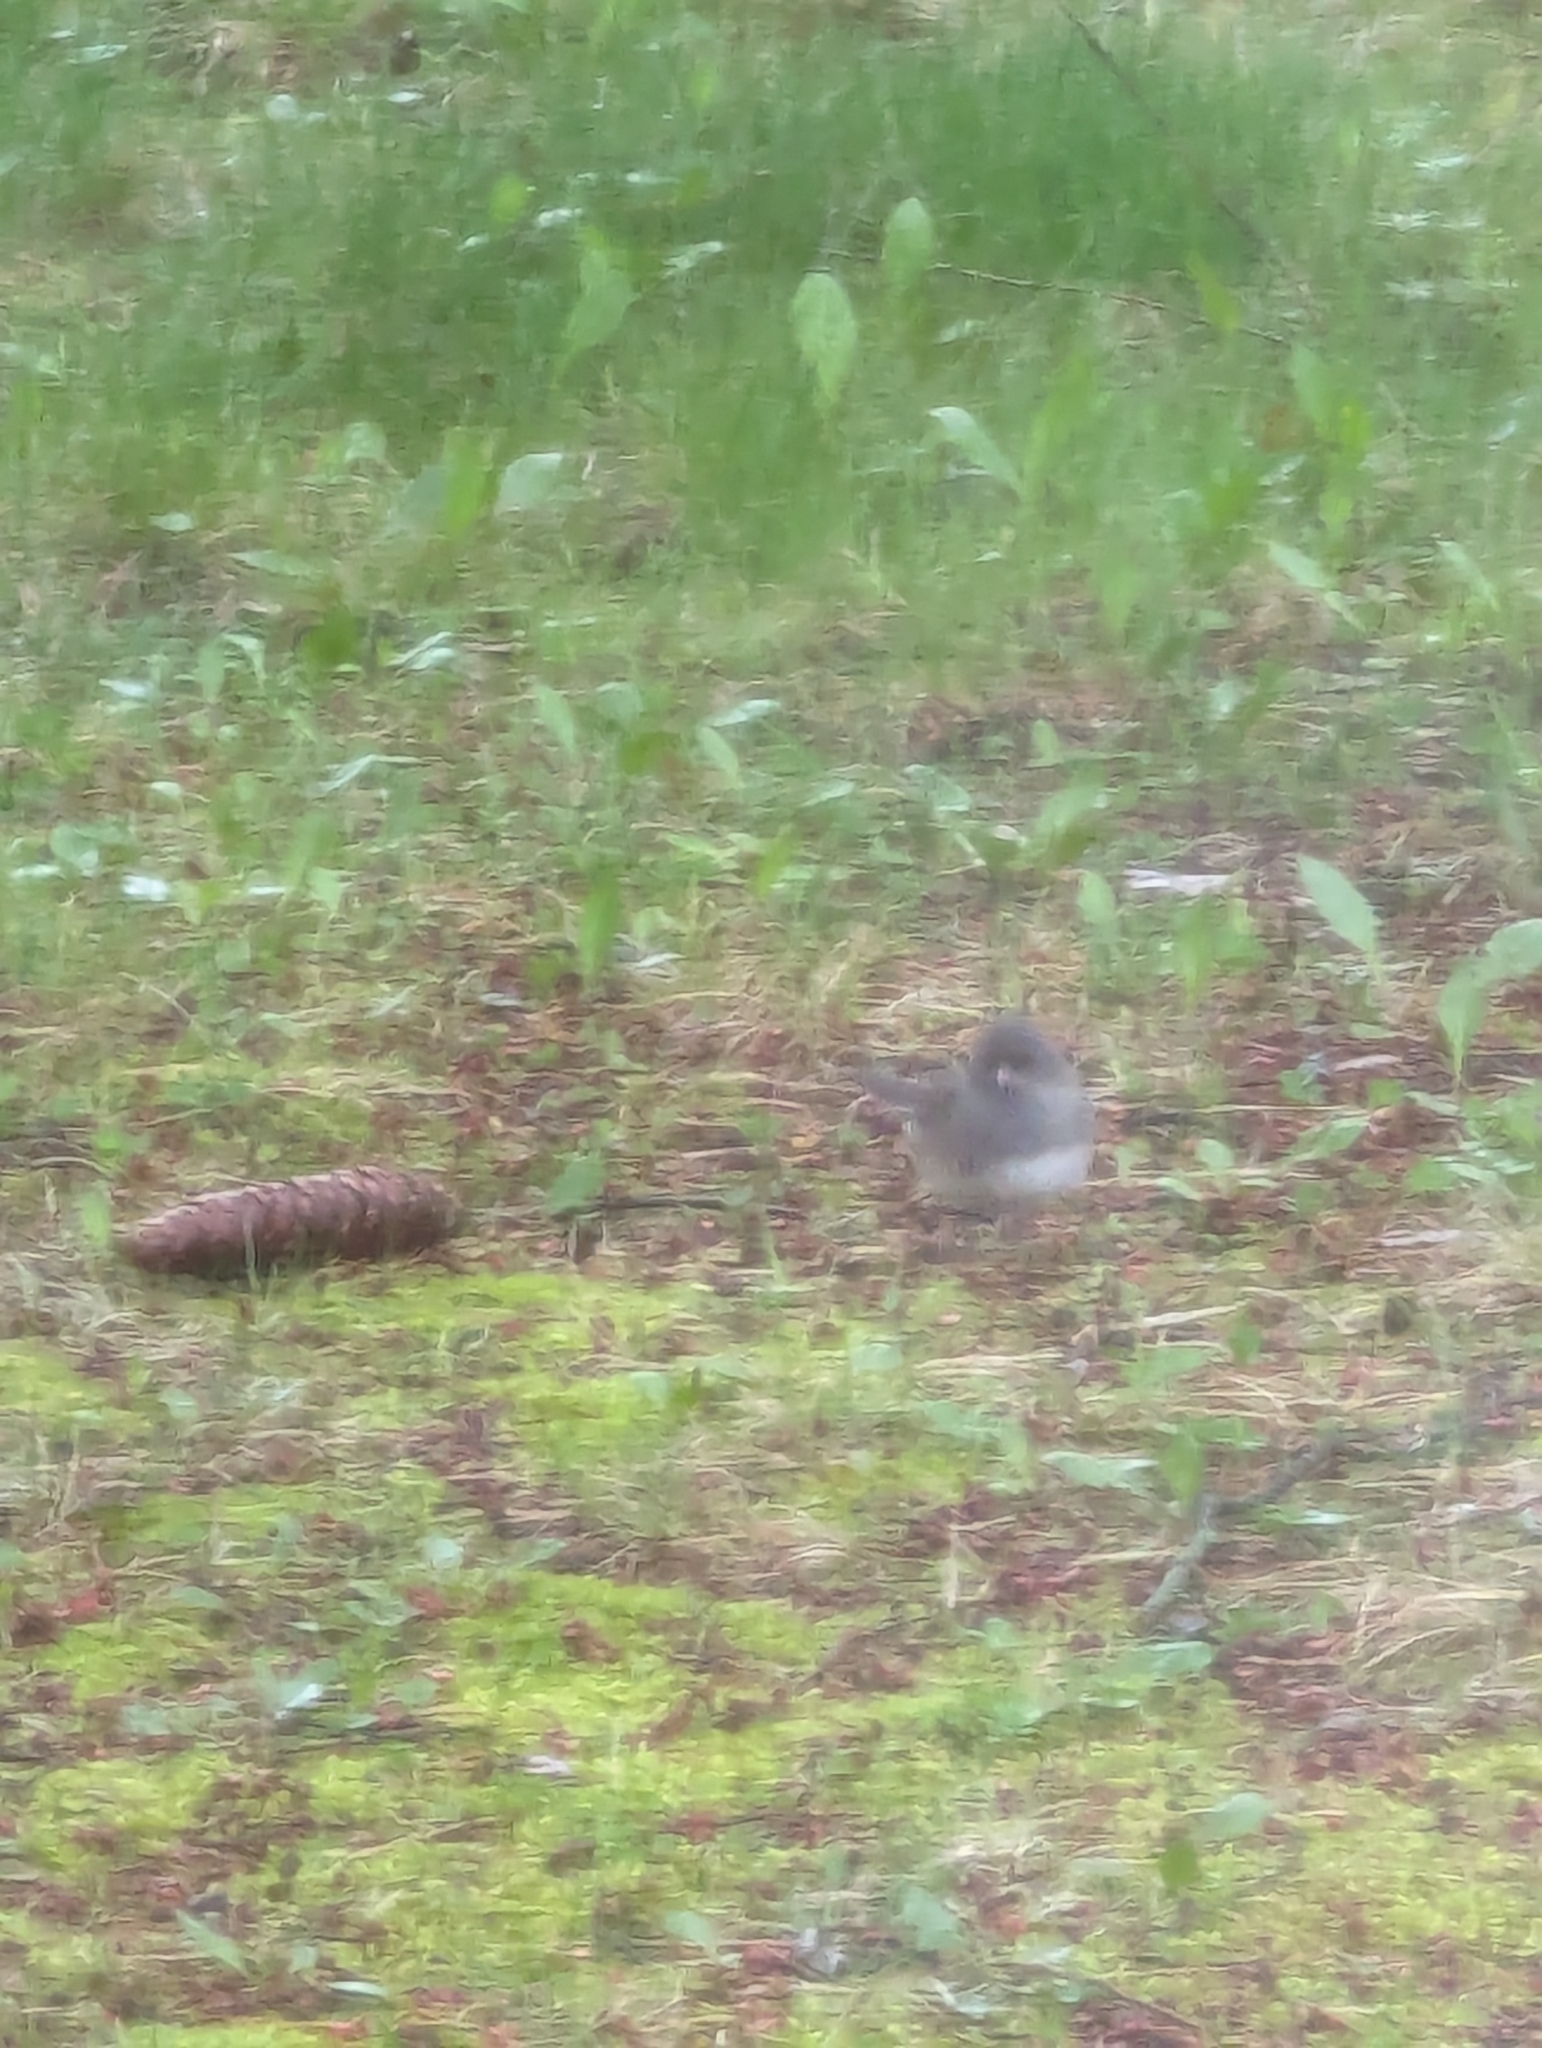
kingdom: Animalia
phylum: Chordata
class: Aves
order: Passeriformes
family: Passerellidae
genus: Junco
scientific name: Junco hyemalis
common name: Dark-eyed junco
